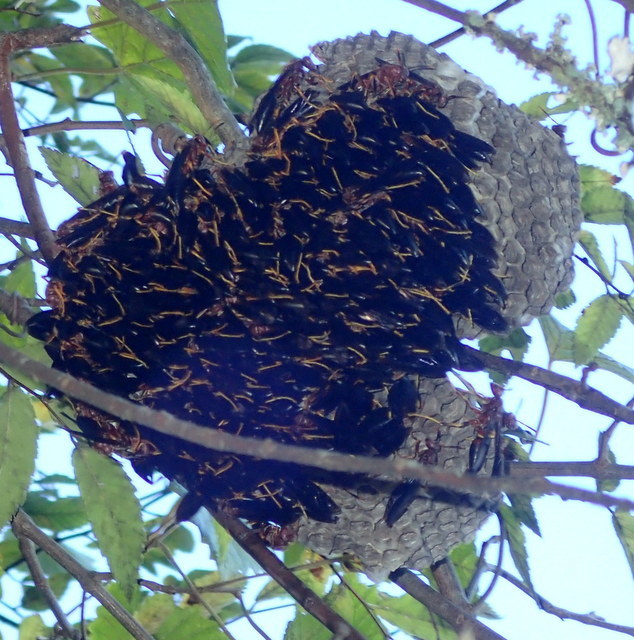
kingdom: Animalia
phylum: Arthropoda
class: Insecta
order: Hymenoptera
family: Eumenidae
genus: Polistes
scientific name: Polistes annularis
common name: Ringed paper wasp
